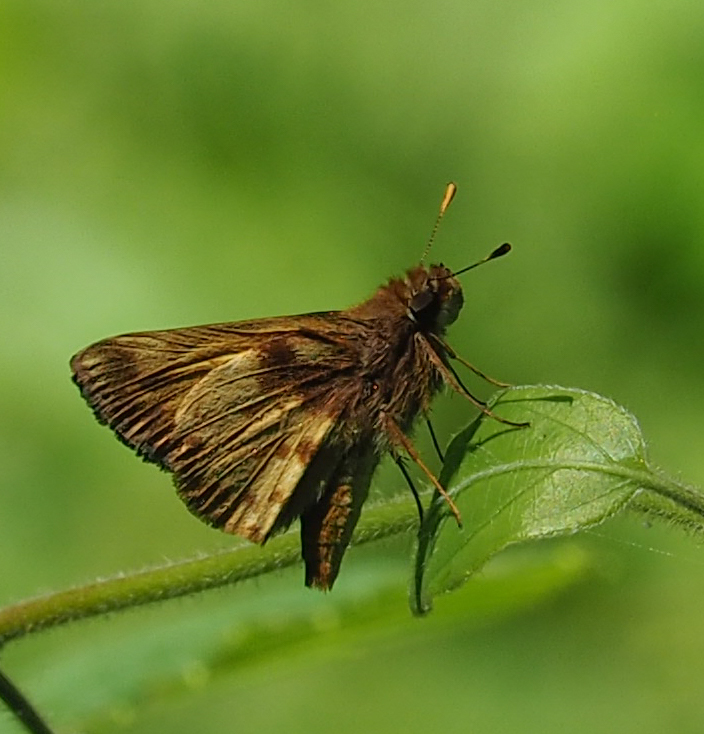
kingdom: Animalia
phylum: Arthropoda
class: Insecta
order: Lepidoptera
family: Hesperiidae
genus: Lon
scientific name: Lon zabulon
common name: Zabulon skipper
